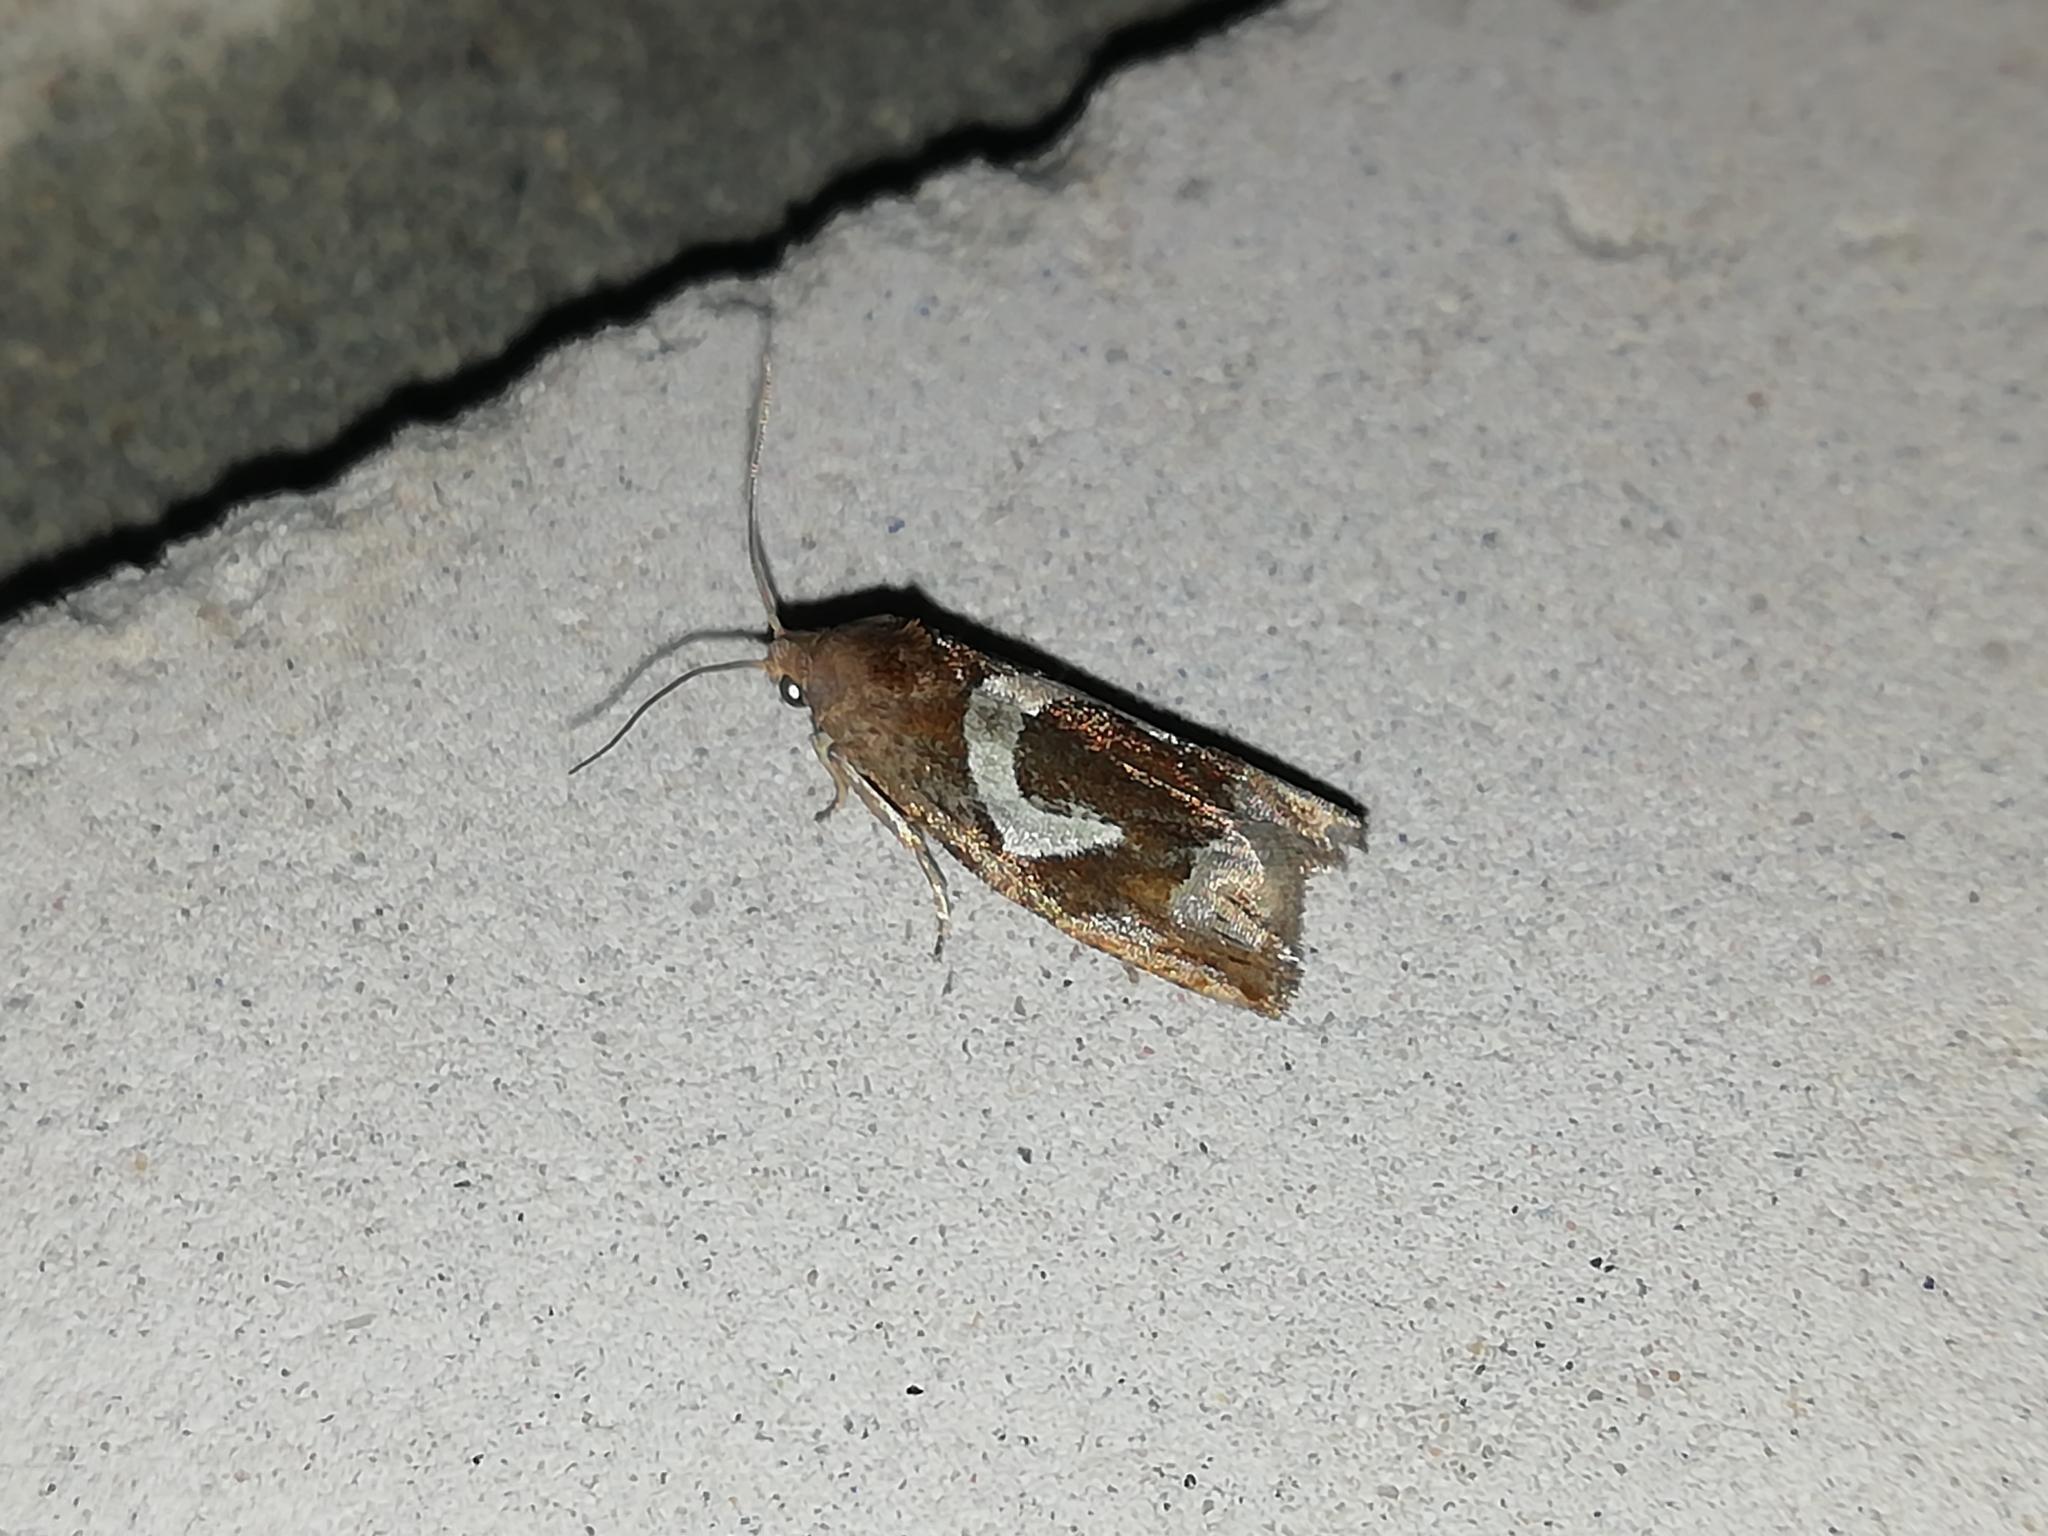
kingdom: Animalia
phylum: Arthropoda
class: Insecta
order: Lepidoptera
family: Tortricidae
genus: Epiblema
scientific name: Epiblema foenella
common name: White-foot bell
